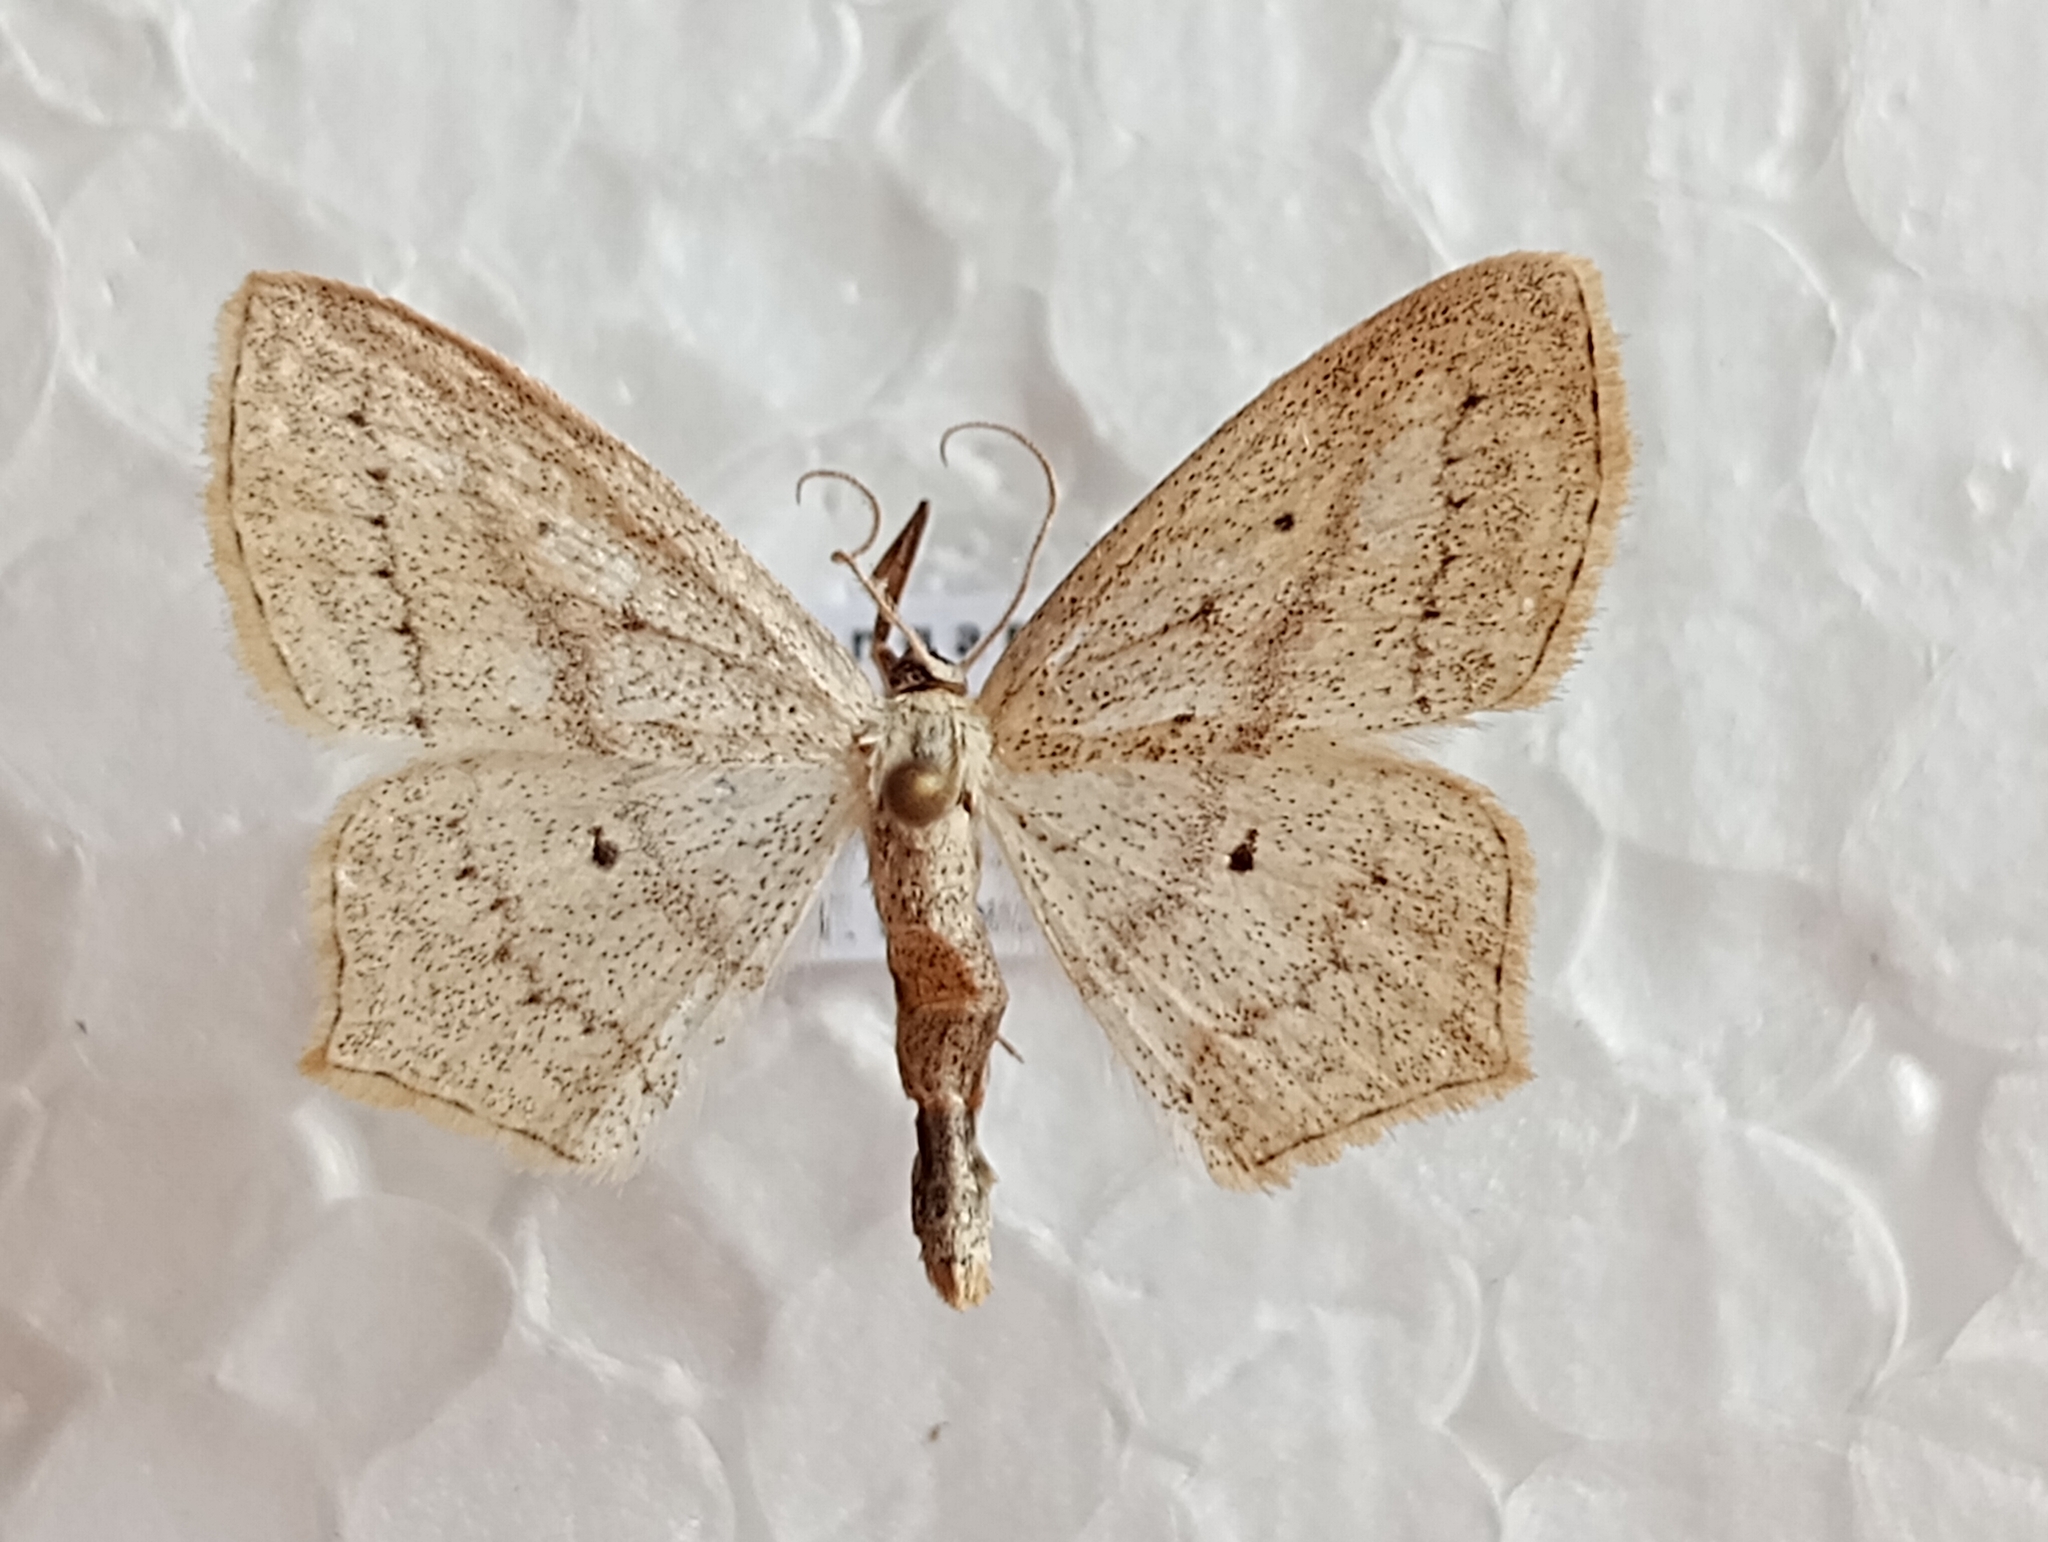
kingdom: Animalia
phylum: Arthropoda
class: Insecta
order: Lepidoptera
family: Geometridae
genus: Scopula
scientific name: Scopula flaccidaria
